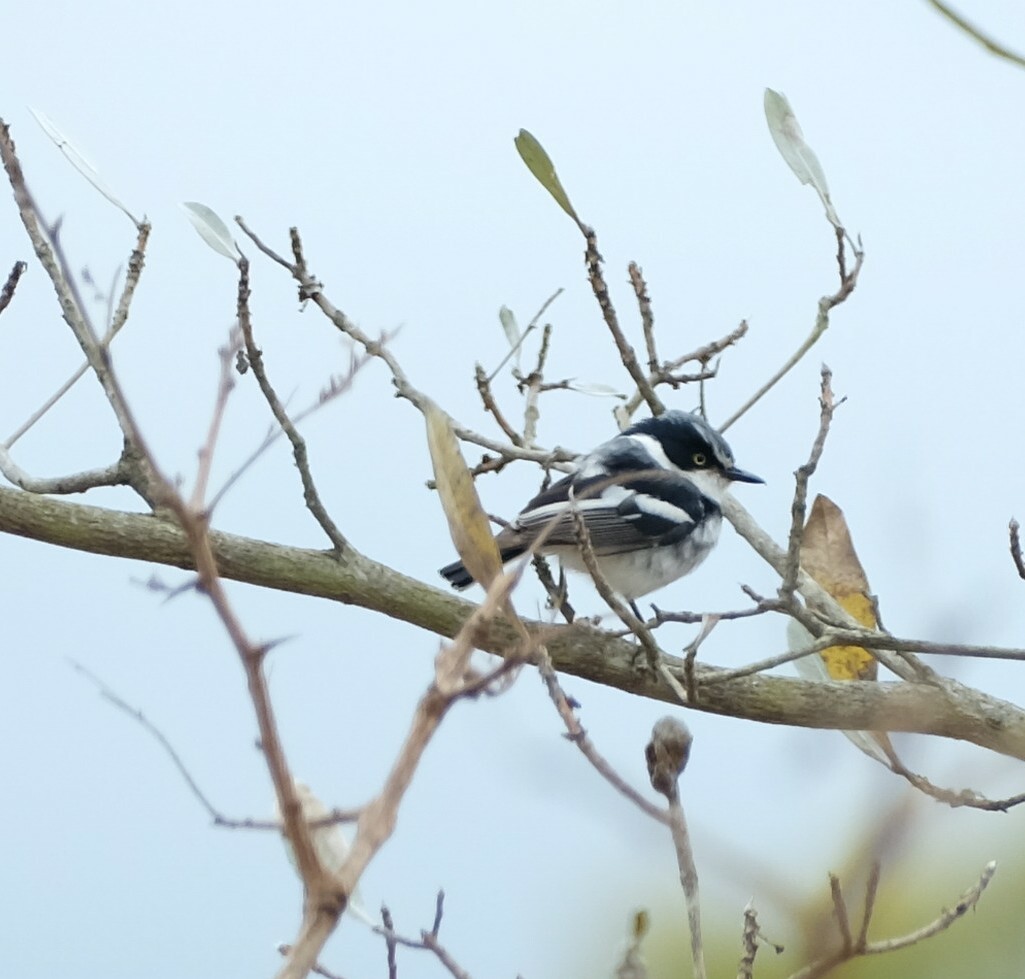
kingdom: Animalia
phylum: Chordata
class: Aves
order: Passeriformes
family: Platysteiridae
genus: Batis
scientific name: Batis molitor
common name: Chinspot batis
